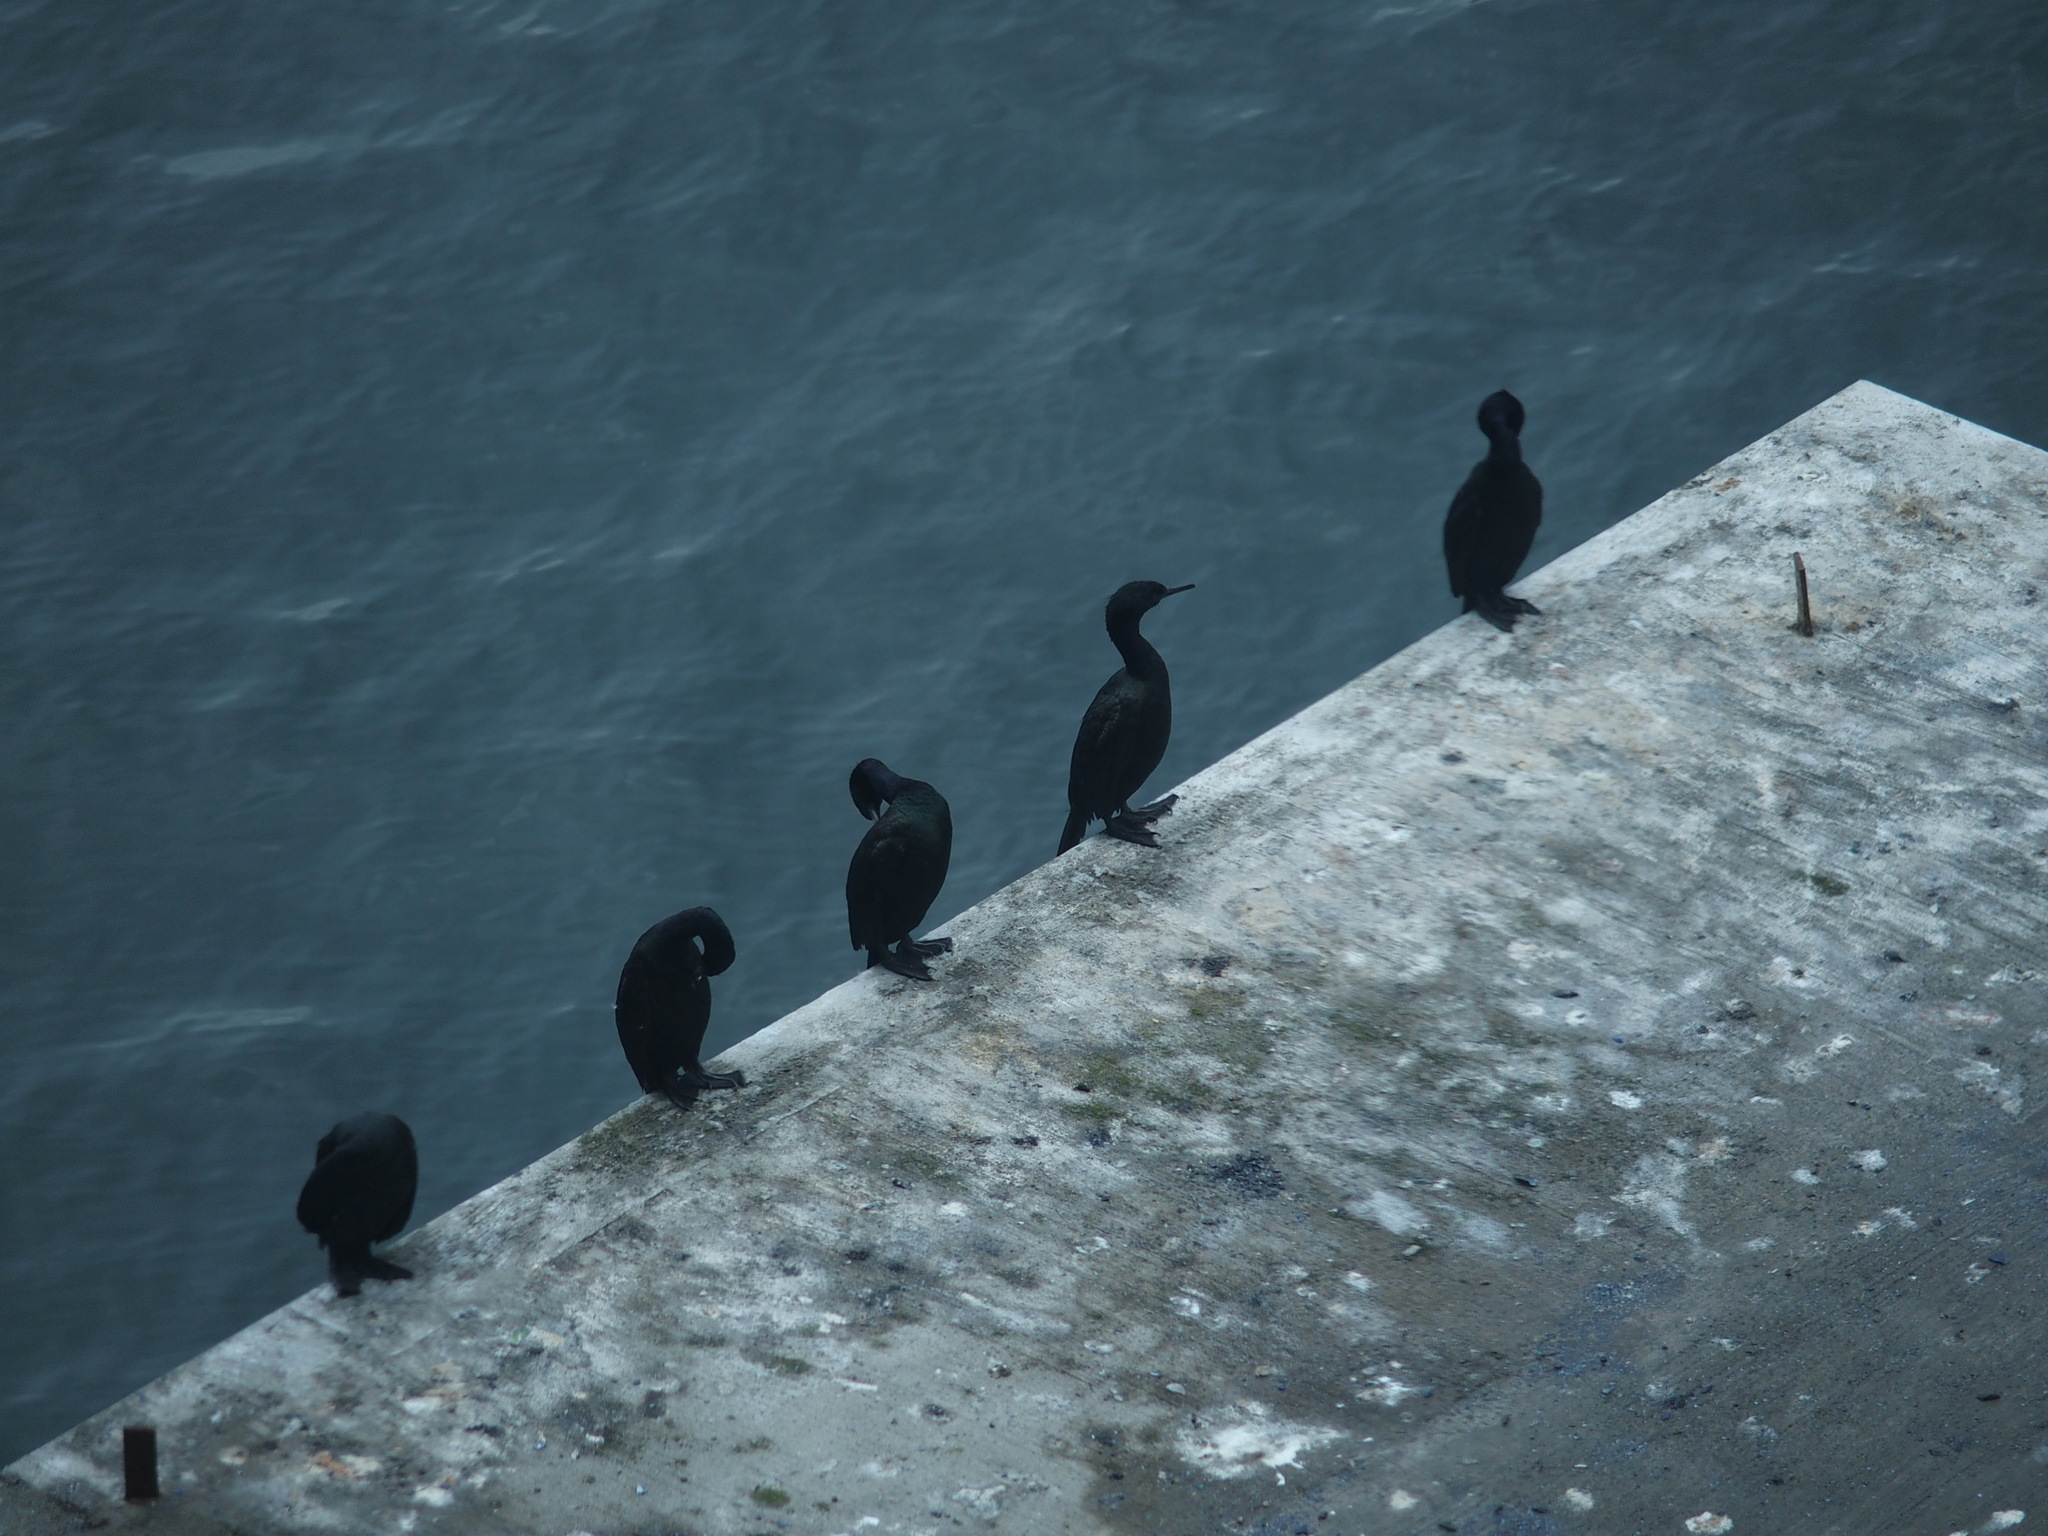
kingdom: Animalia
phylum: Chordata
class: Aves
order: Suliformes
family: Phalacrocoracidae
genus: Phalacrocorax
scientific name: Phalacrocorax pelagicus
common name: Pelagic cormorant
